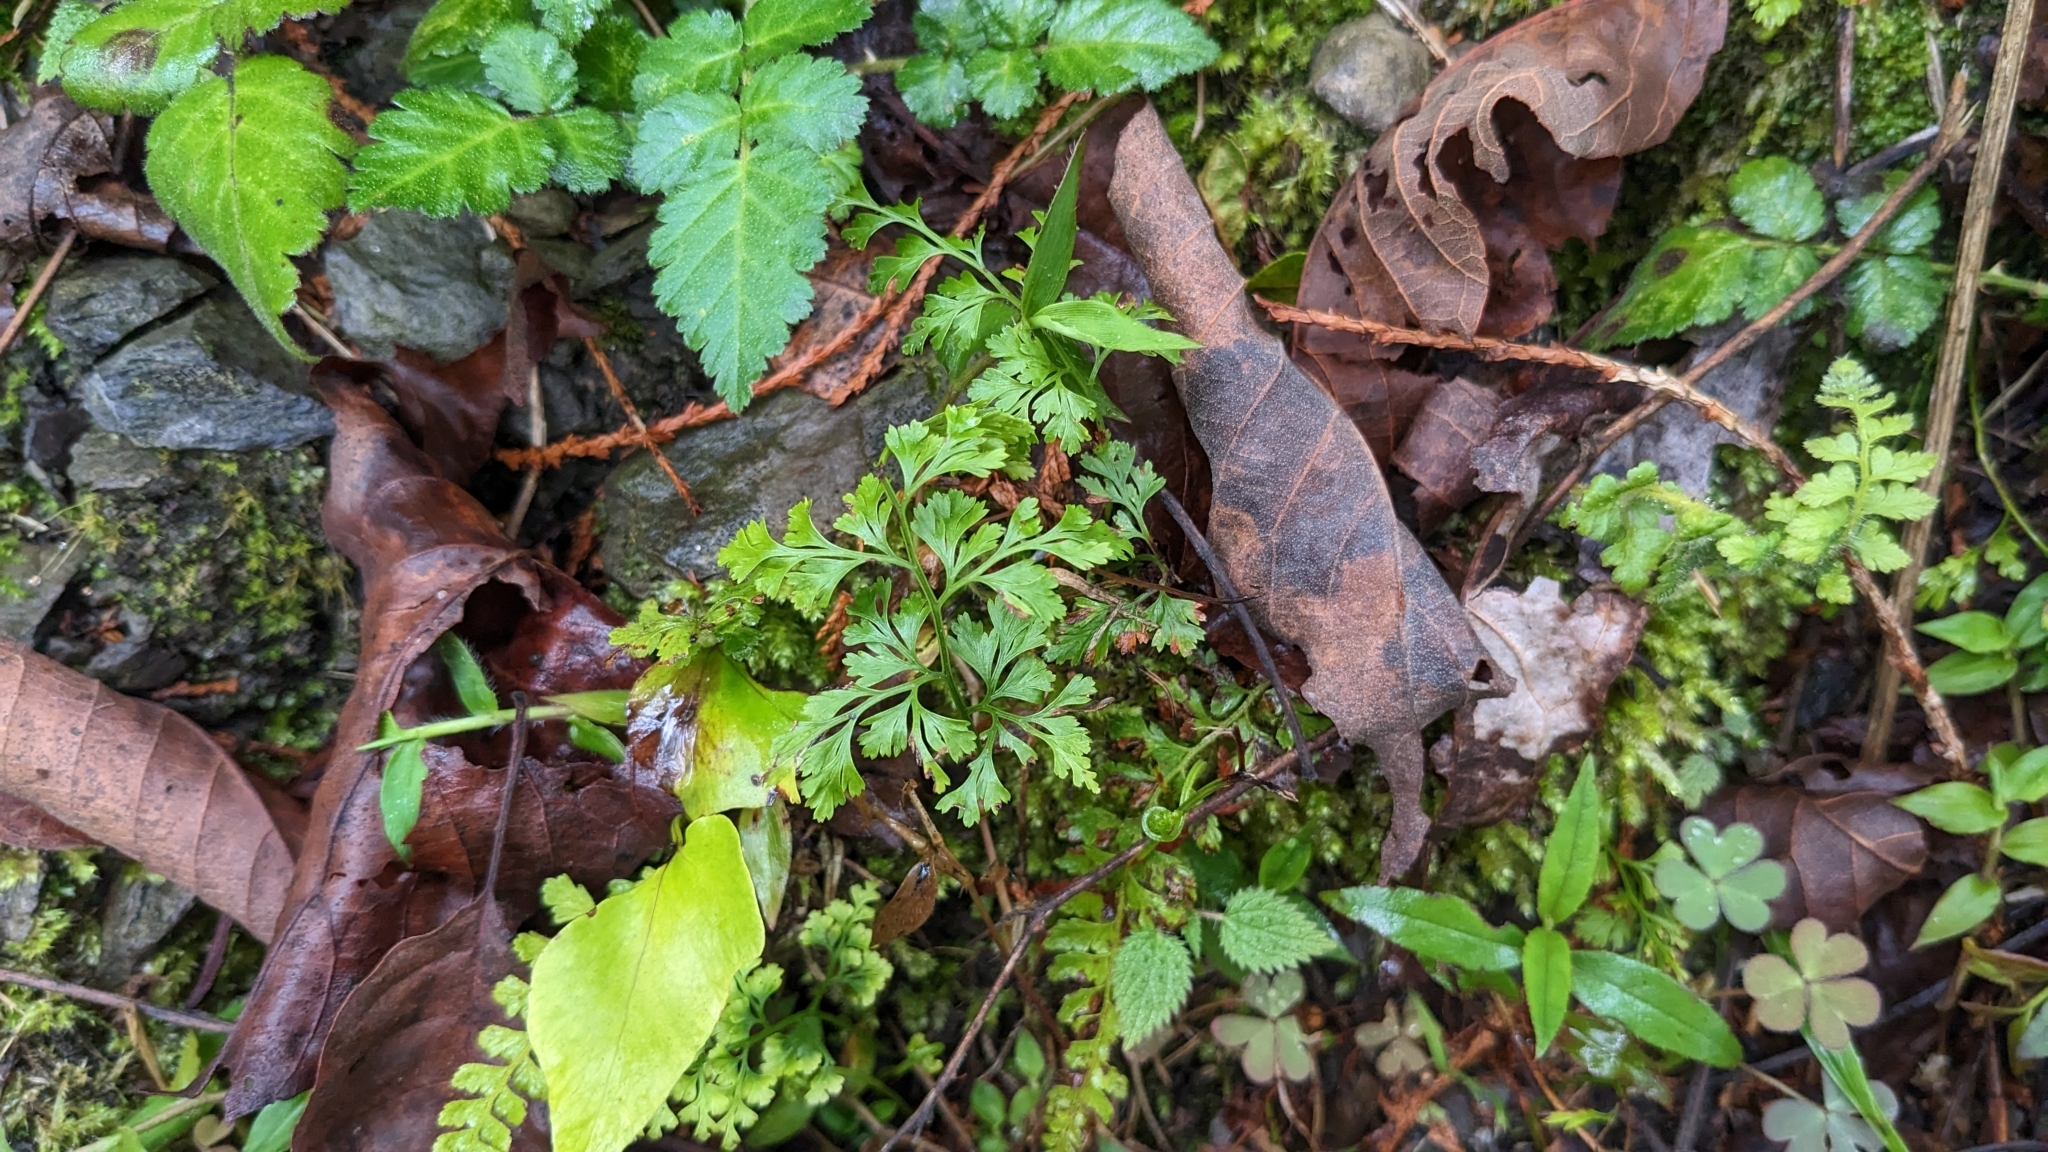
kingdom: Plantae
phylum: Tracheophyta
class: Polypodiopsida
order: Polypodiales
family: Lindsaeaceae
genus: Odontosoria
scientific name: Odontosoria chinensis
